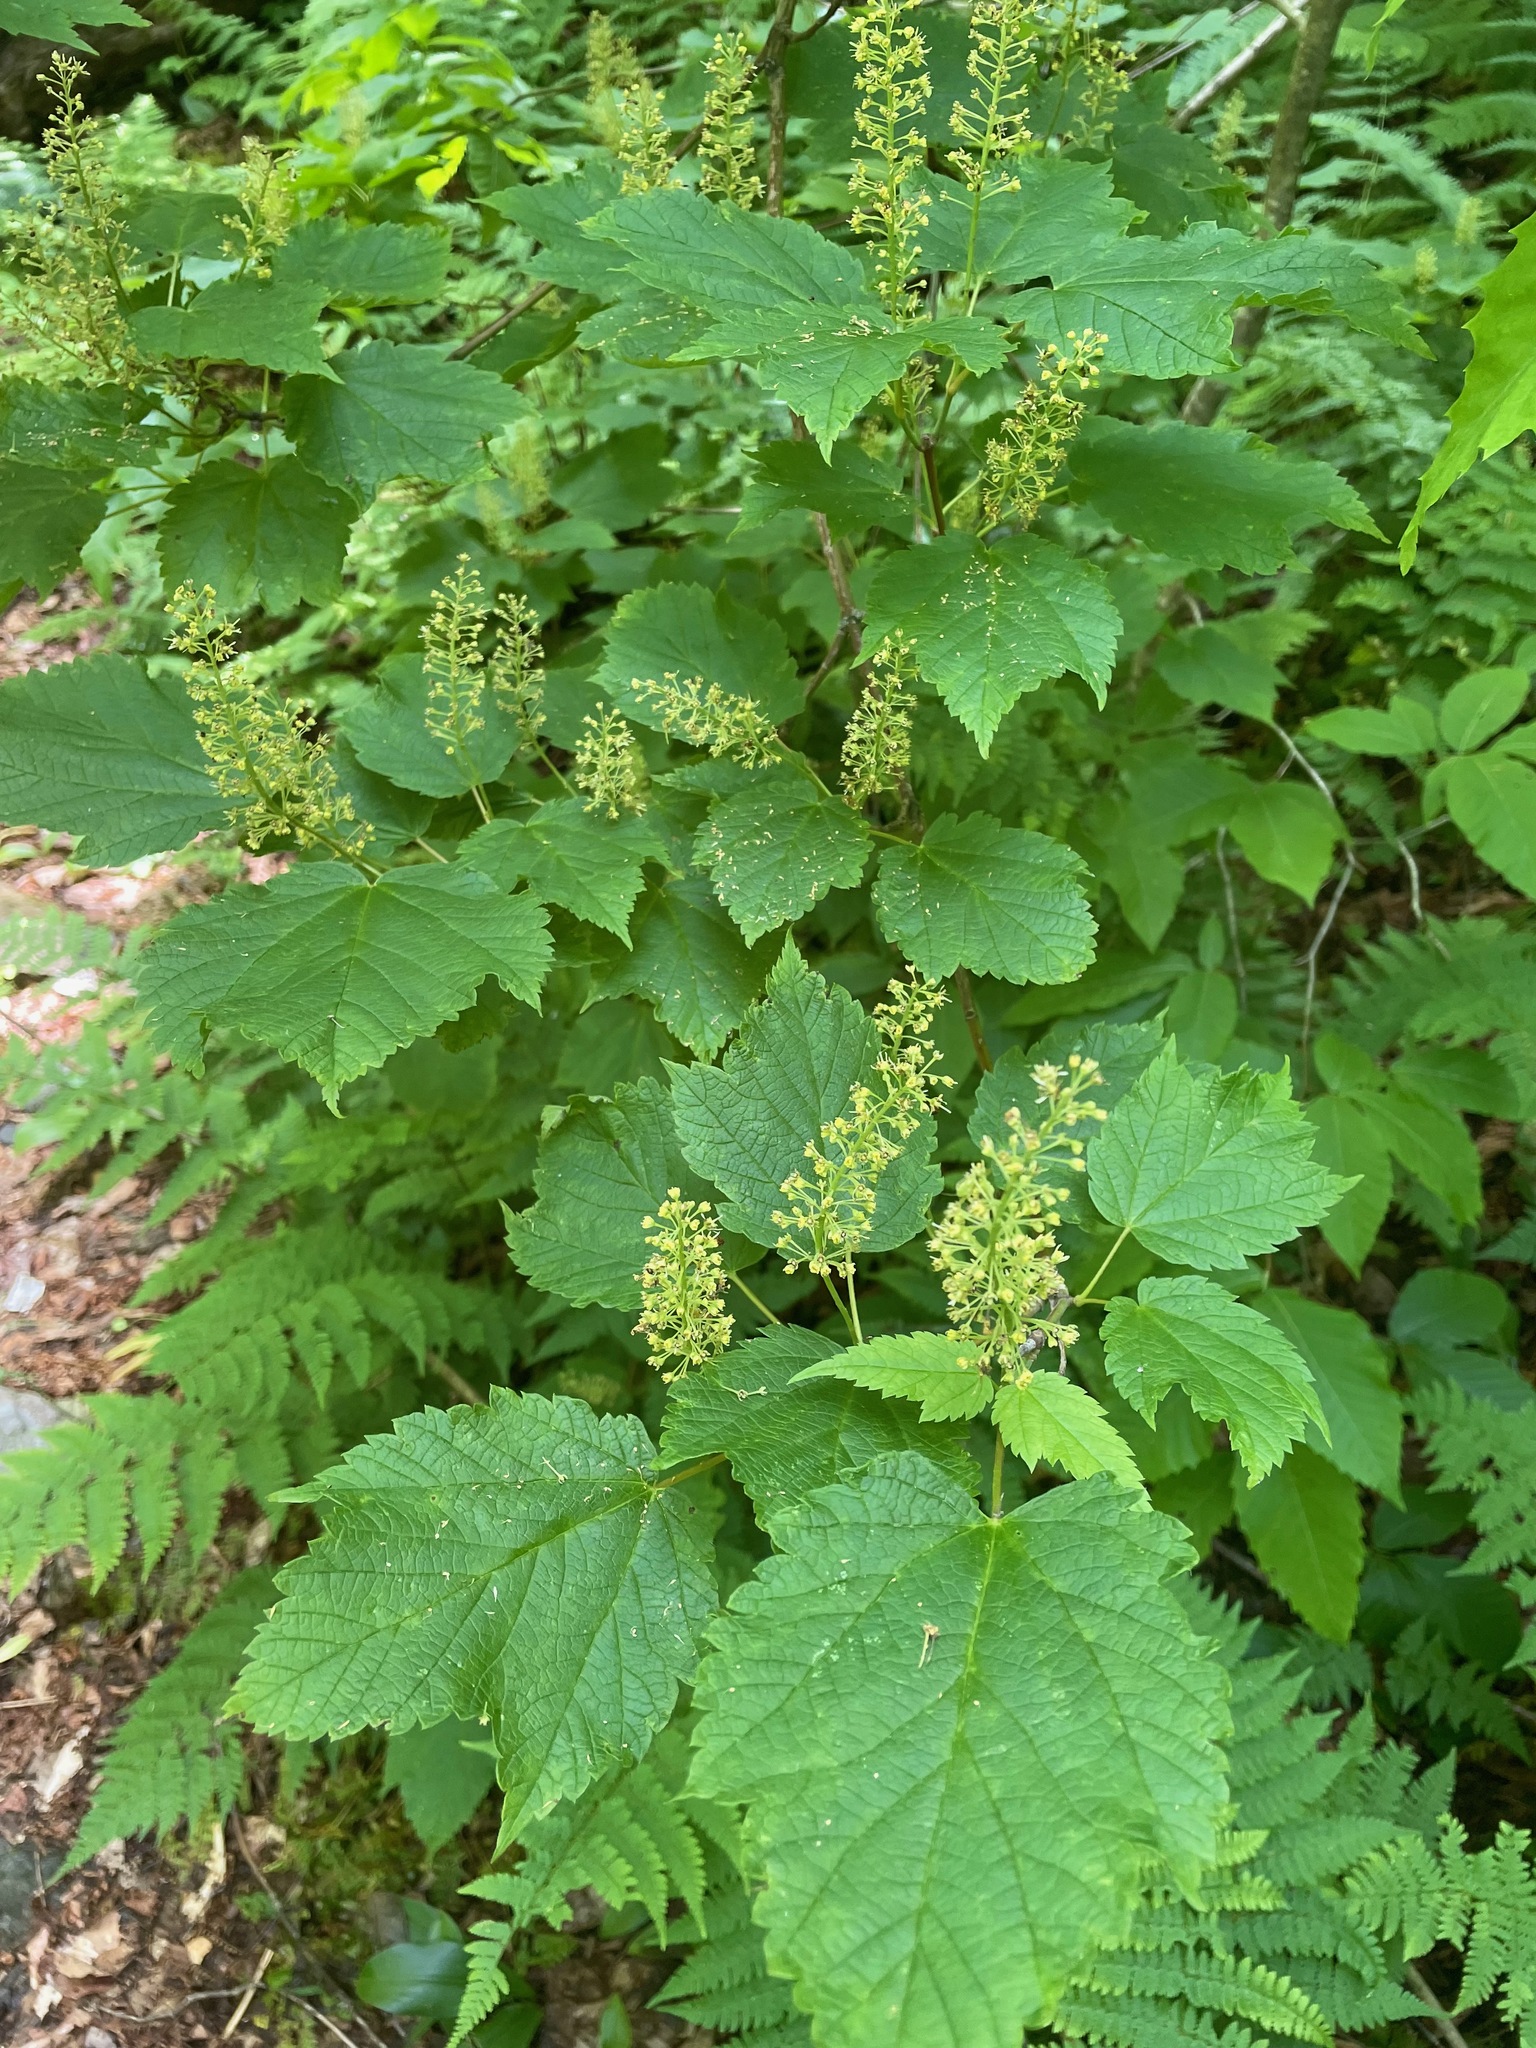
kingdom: Plantae
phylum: Tracheophyta
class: Magnoliopsida
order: Sapindales
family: Sapindaceae
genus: Acer
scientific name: Acer spicatum
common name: Mountain maple
